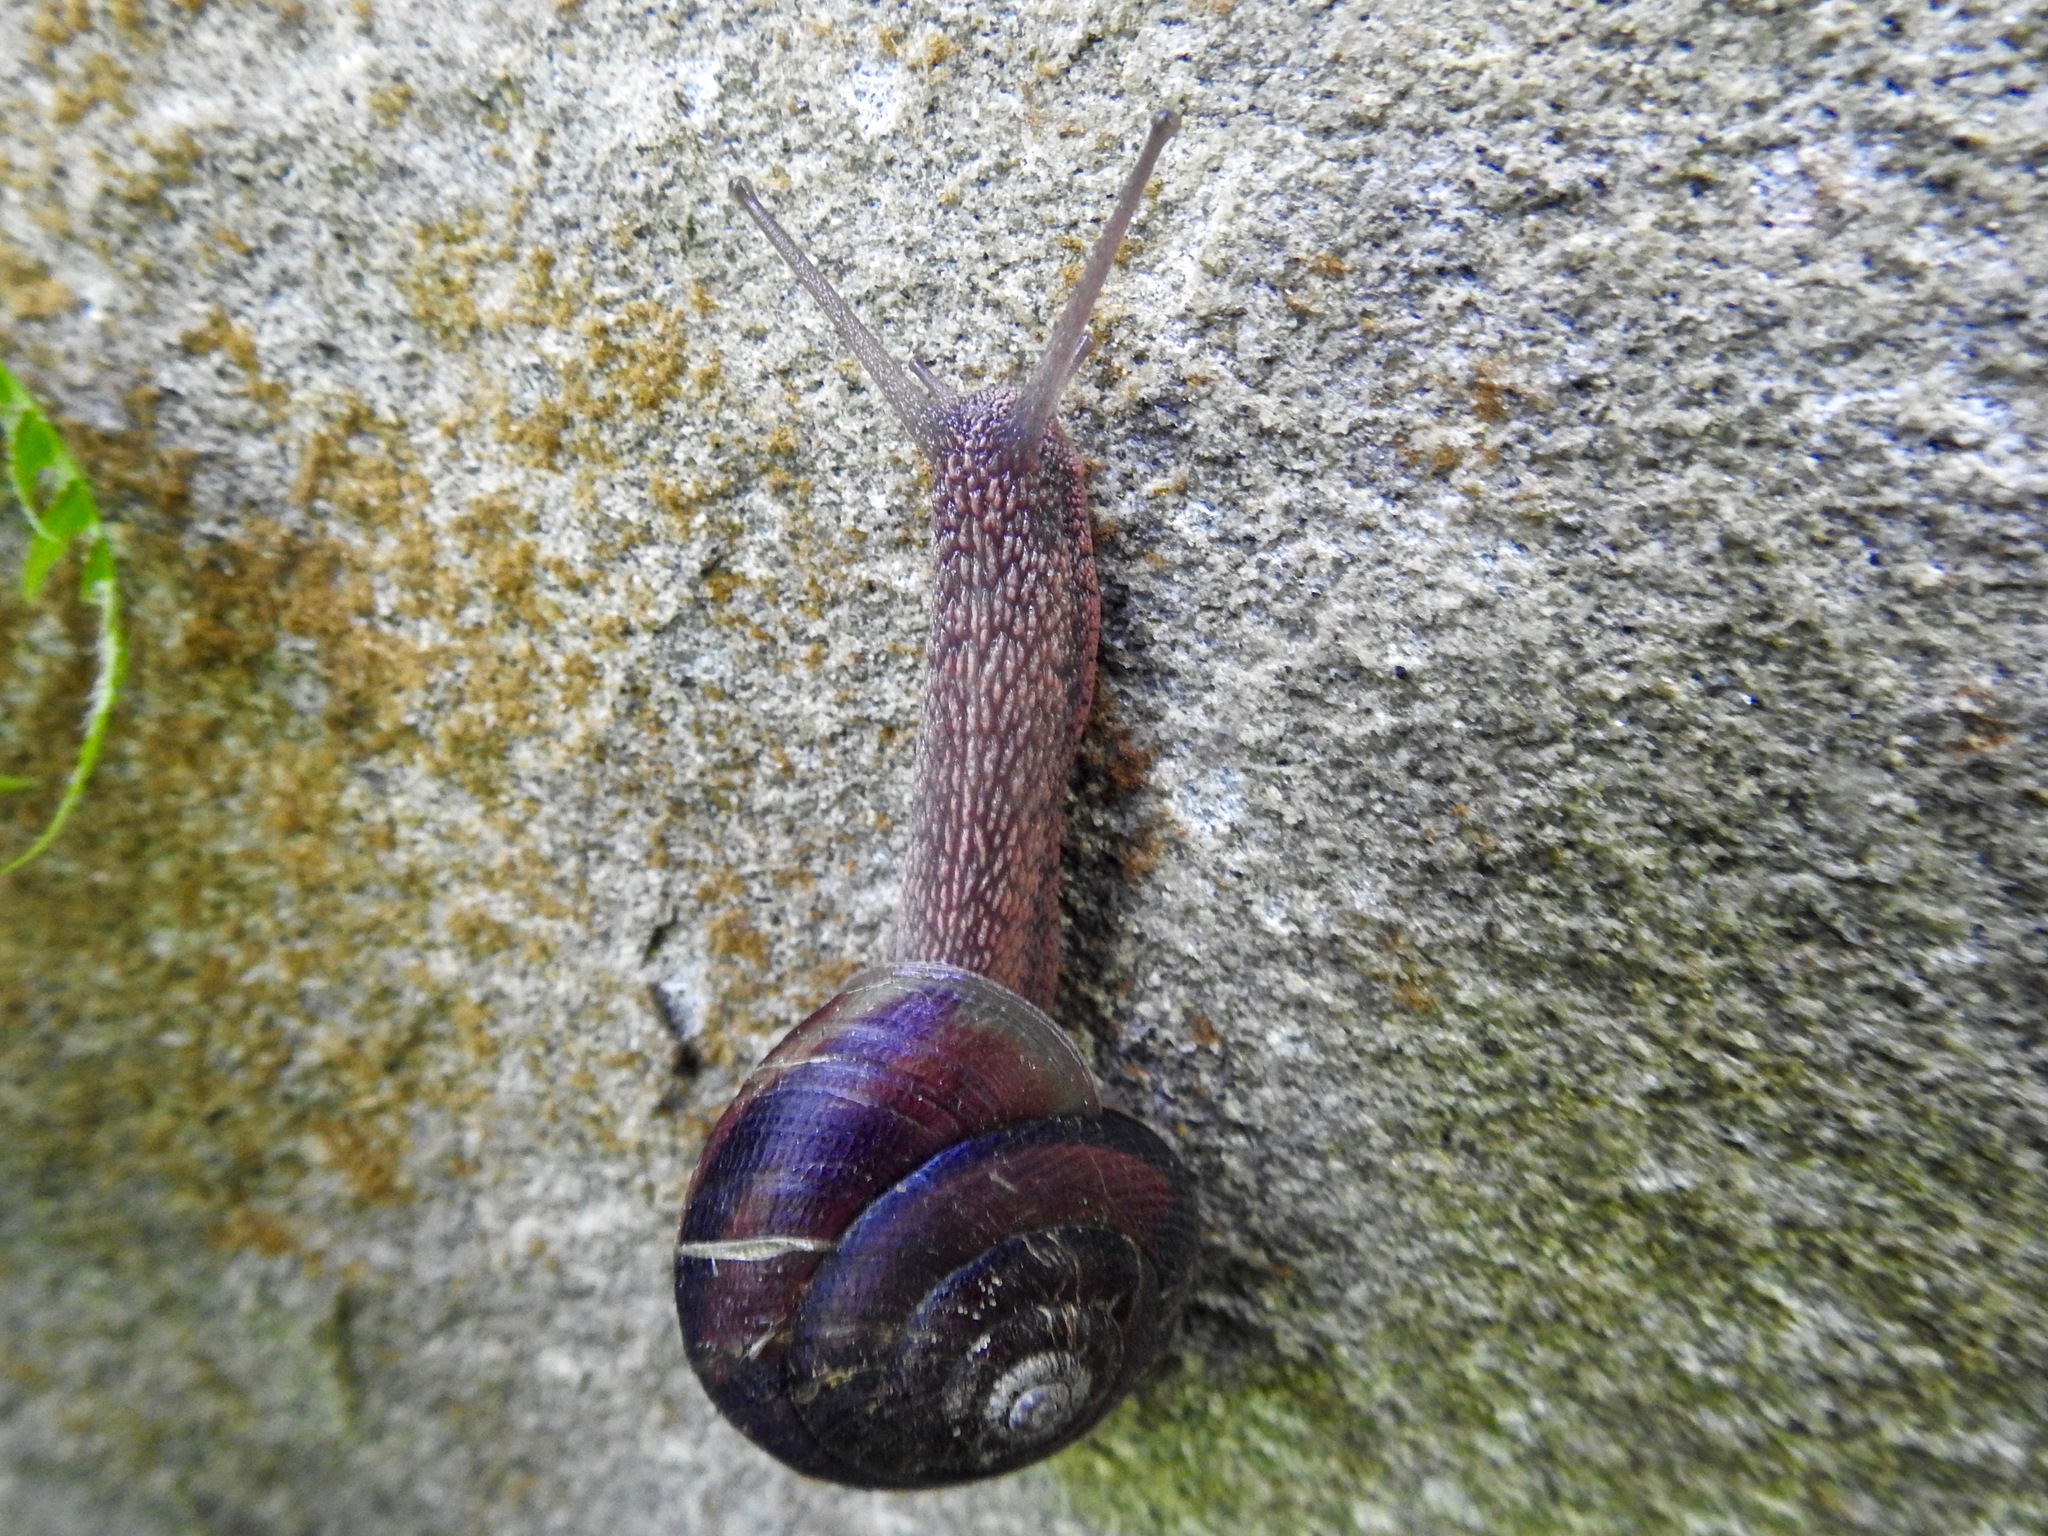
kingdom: Animalia
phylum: Mollusca
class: Gastropoda
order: Stylommatophora
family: Xanthonychidae
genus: Monadenia
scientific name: Monadenia fidelis
